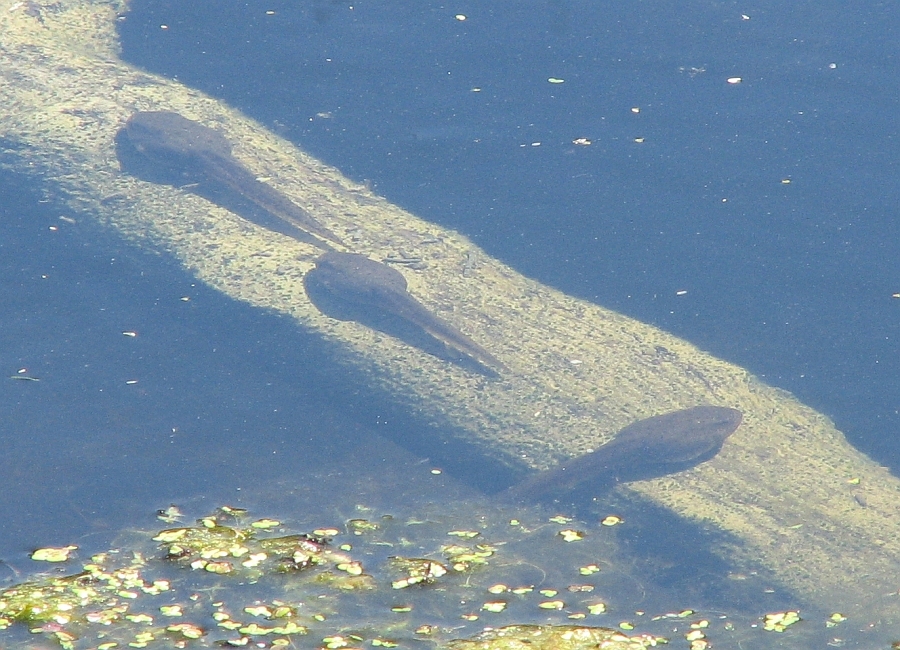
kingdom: Animalia
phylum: Chordata
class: Amphibia
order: Anura
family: Ranidae
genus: Lithobates
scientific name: Lithobates
